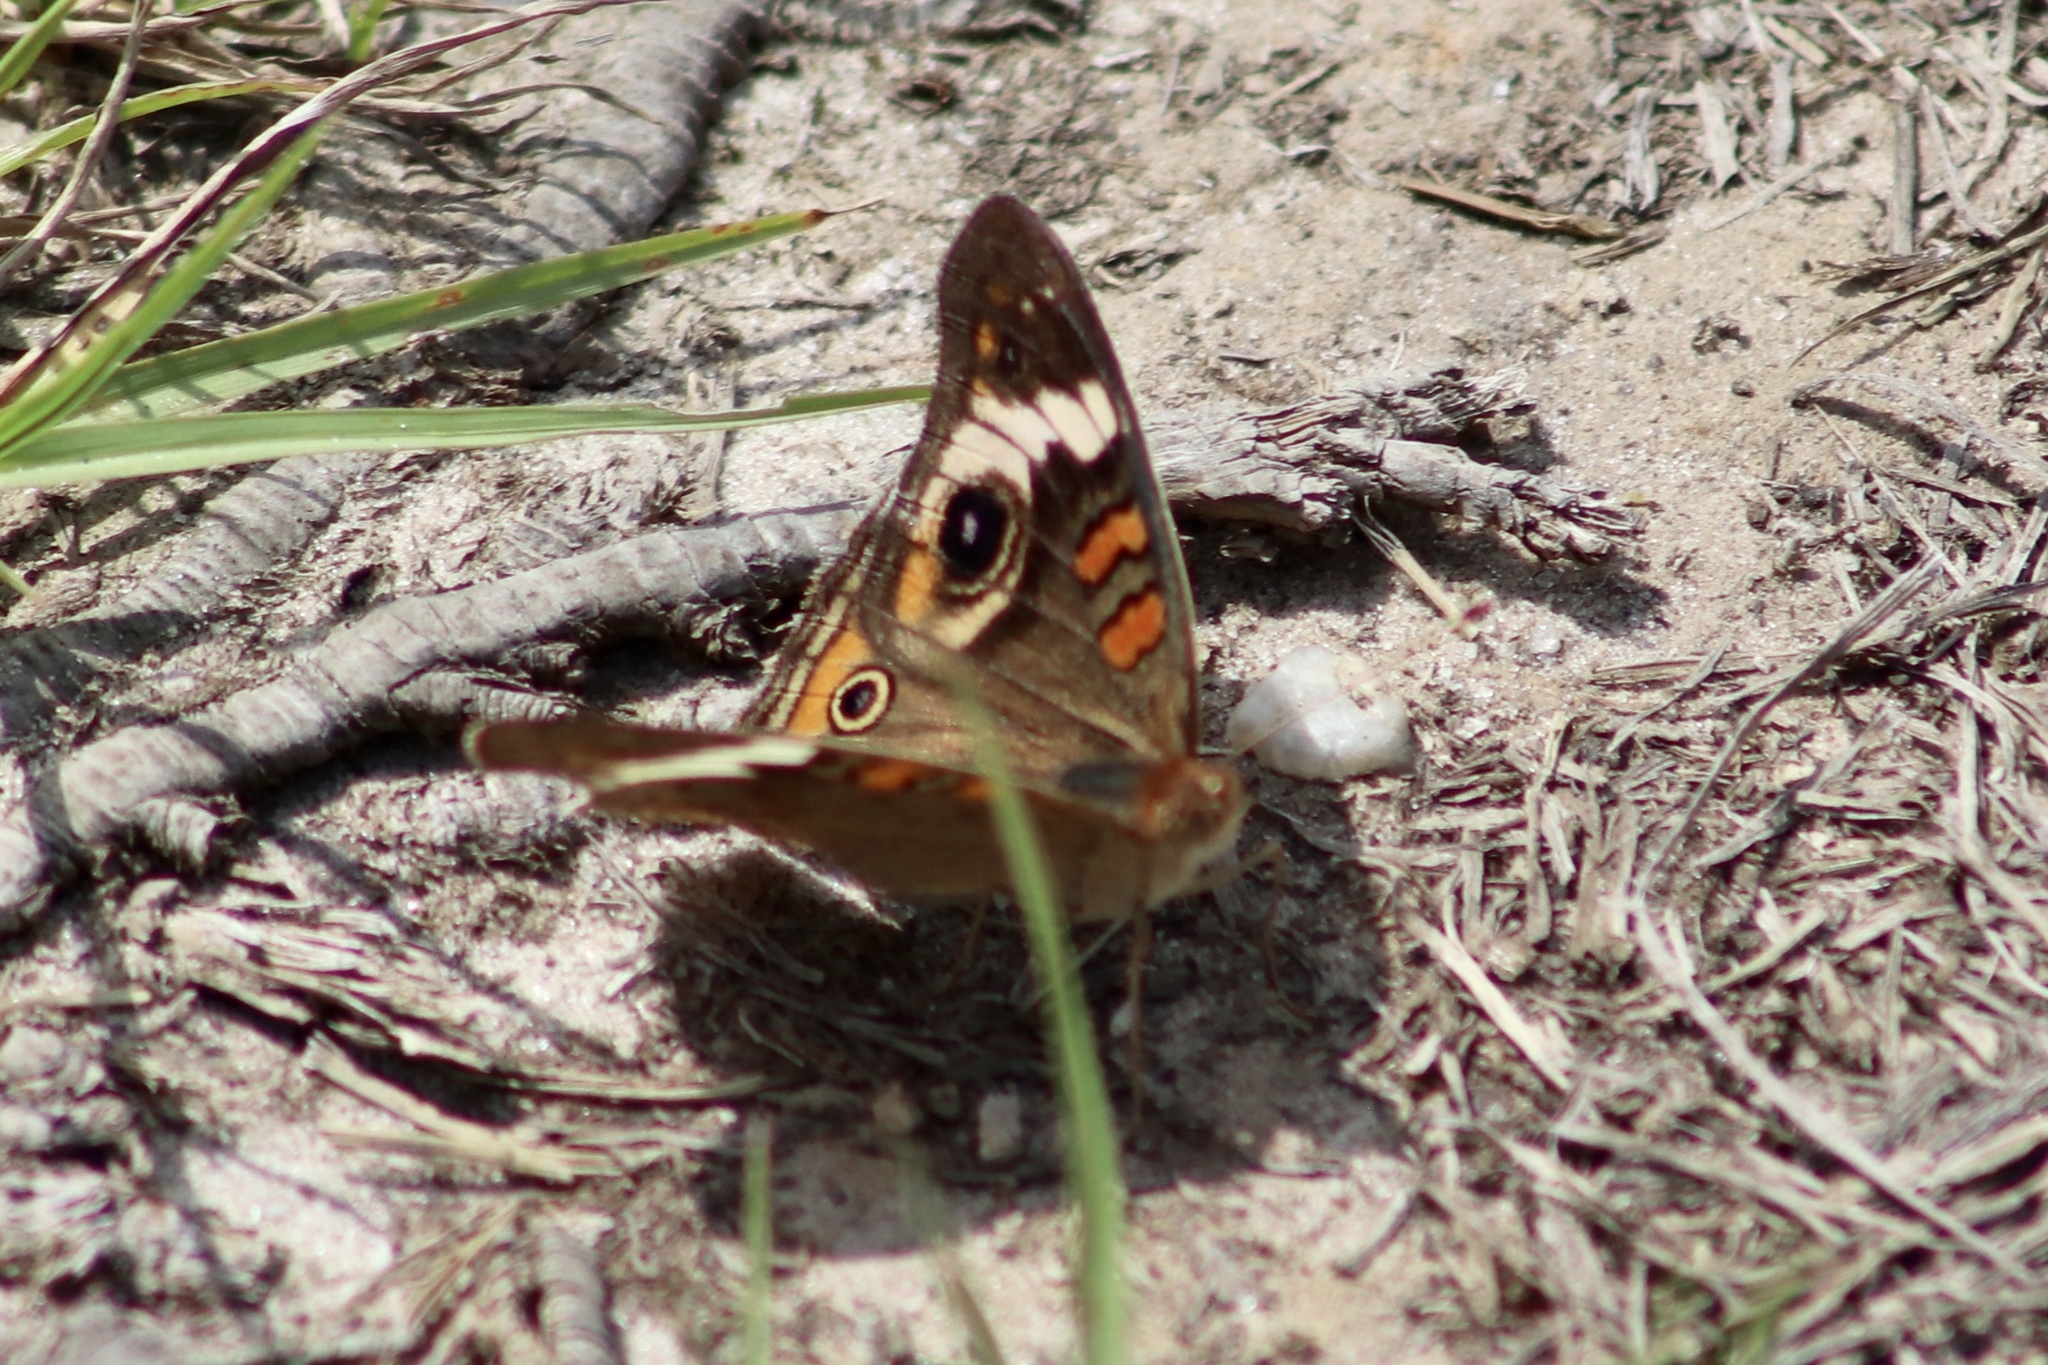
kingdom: Animalia
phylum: Arthropoda
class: Insecta
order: Lepidoptera
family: Nymphalidae
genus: Junonia
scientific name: Junonia coenia
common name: Common buckeye
